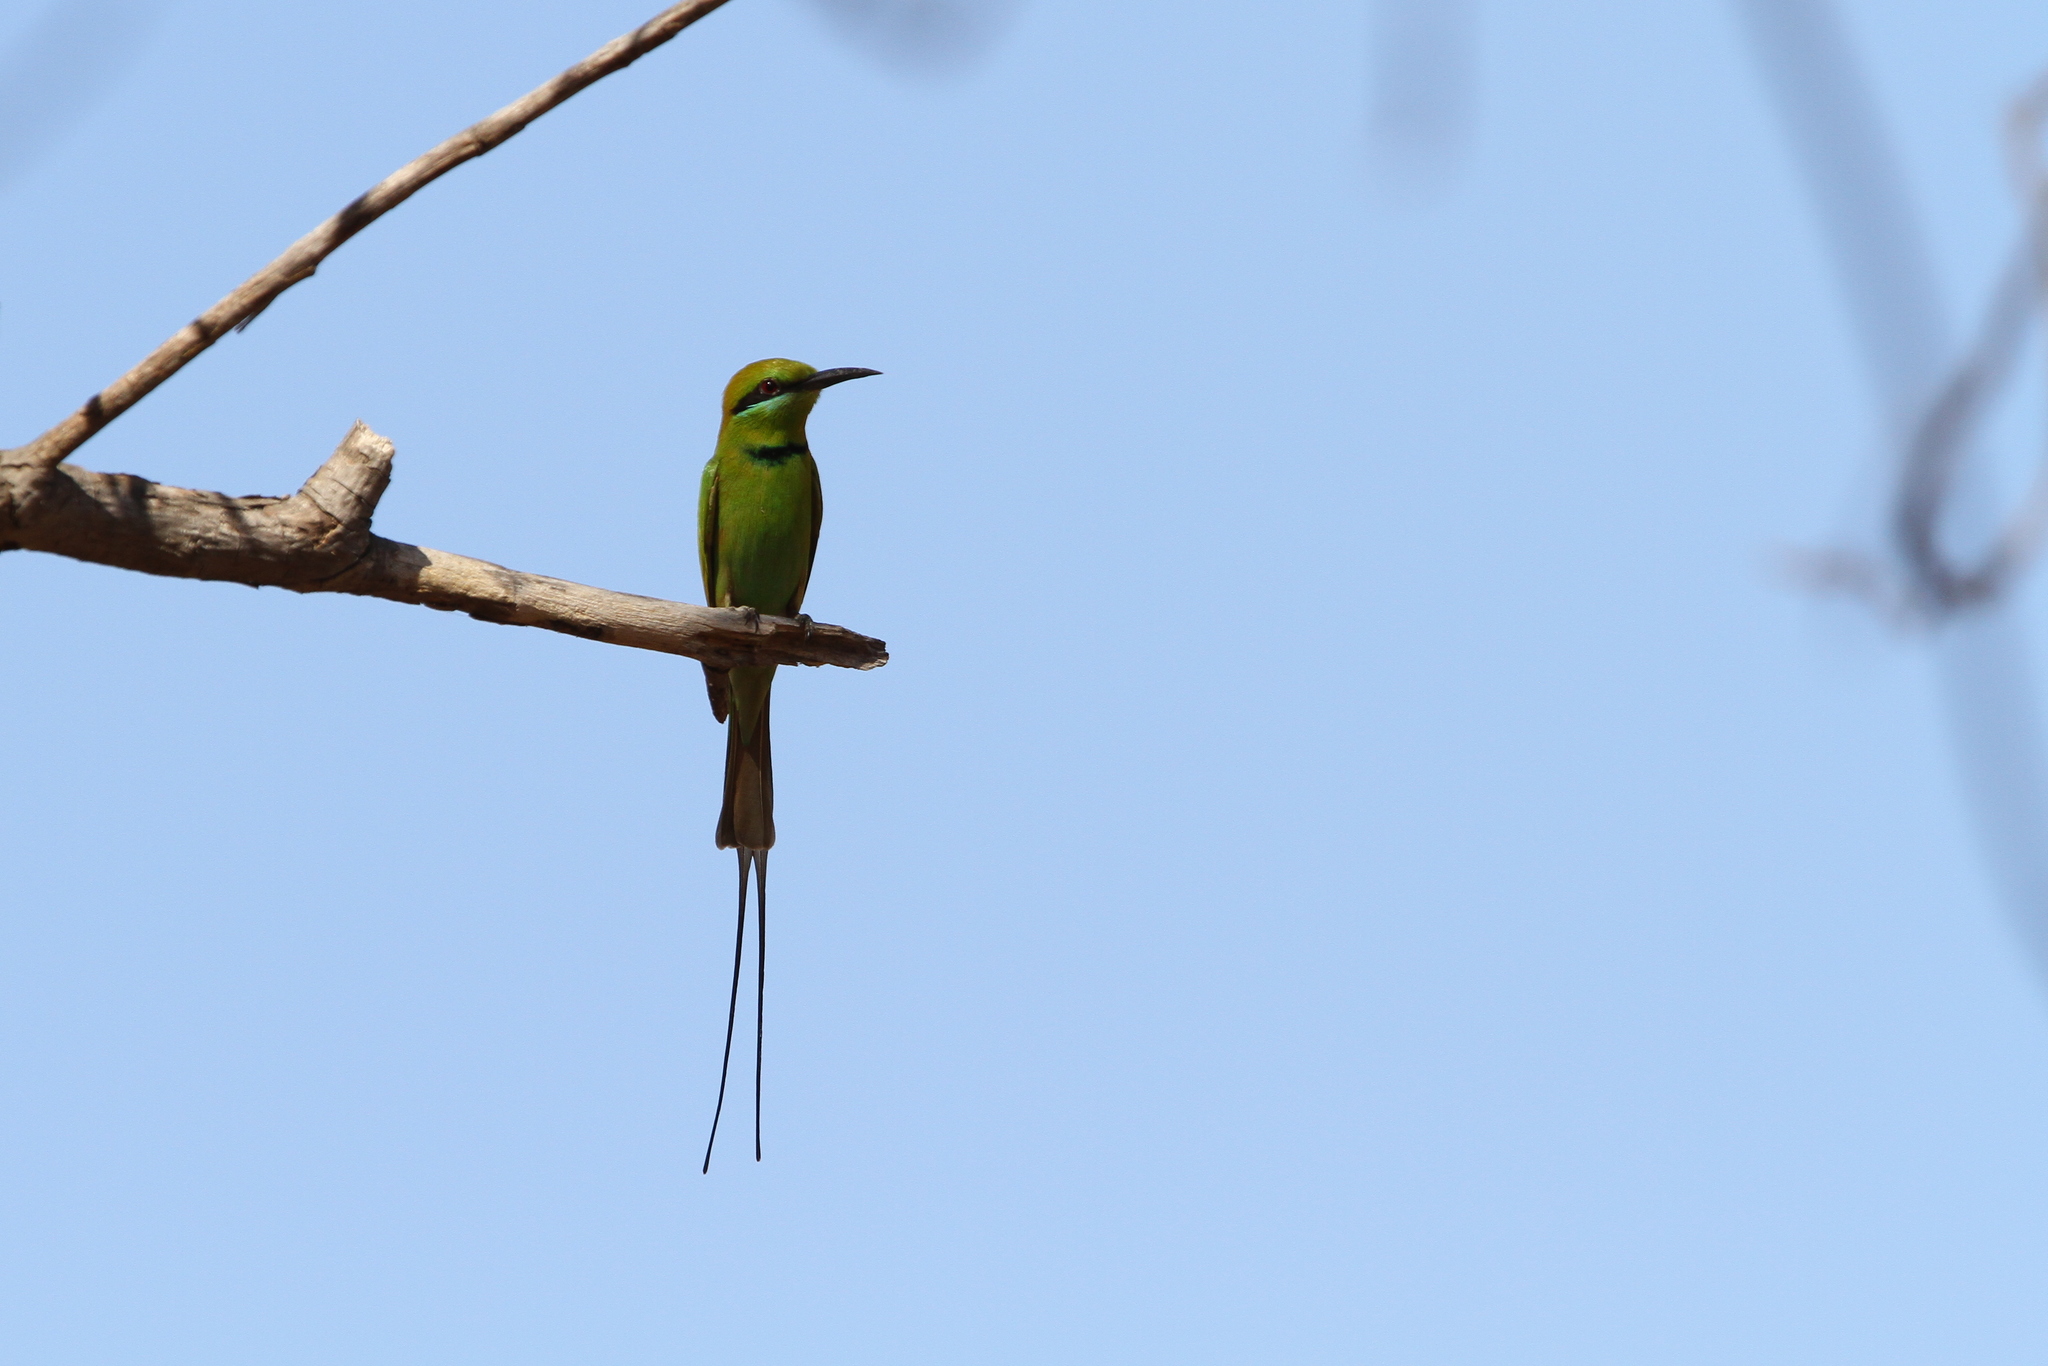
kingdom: Animalia
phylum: Chordata
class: Aves
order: Coraciiformes
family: Meropidae
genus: Merops
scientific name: Merops viridissimus
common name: African green bee-eater
